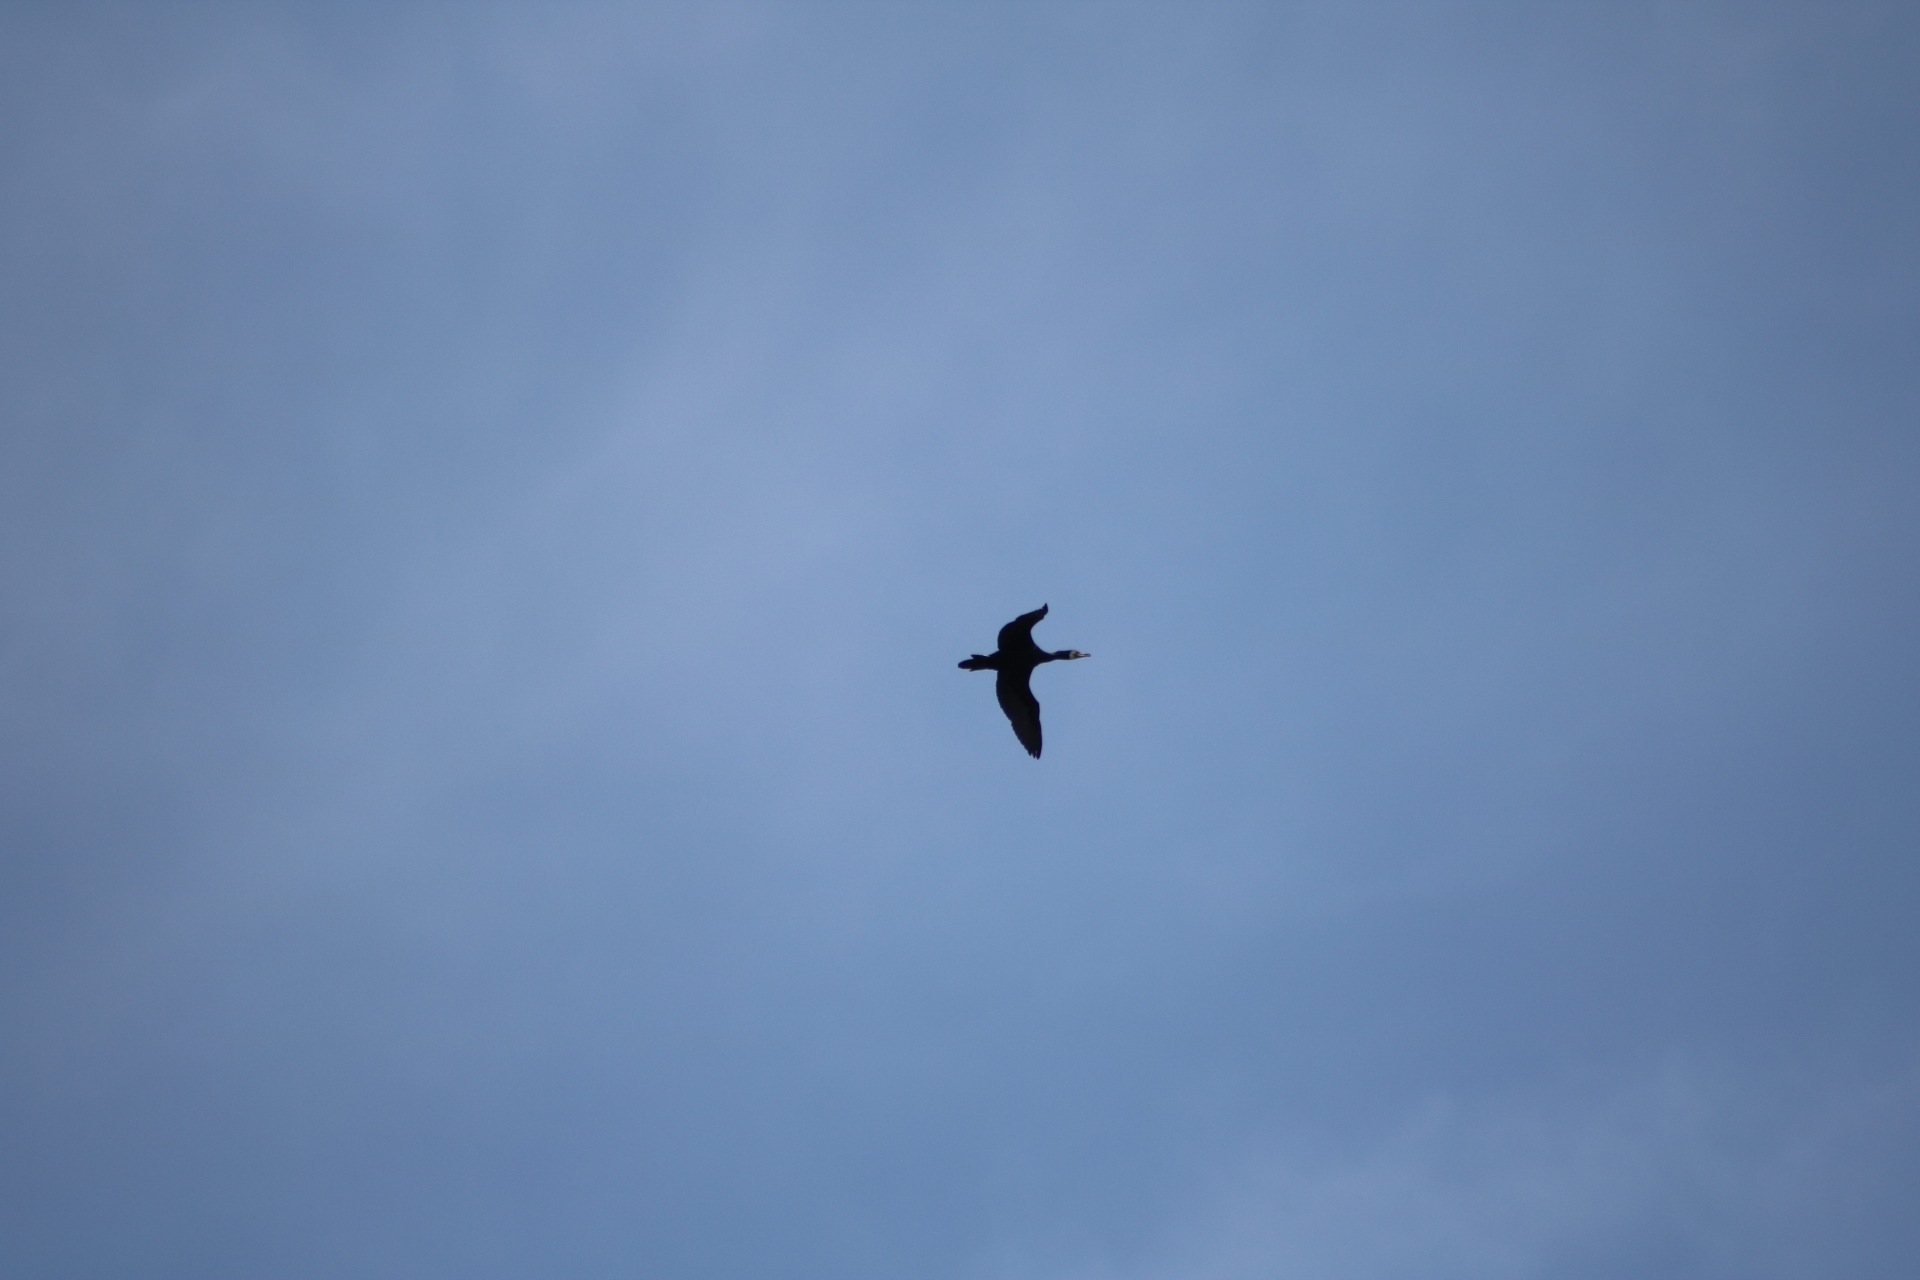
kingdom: Animalia
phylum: Chordata
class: Aves
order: Suliformes
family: Phalacrocoracidae
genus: Phalacrocorax
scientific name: Phalacrocorax carbo
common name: Great cormorant
